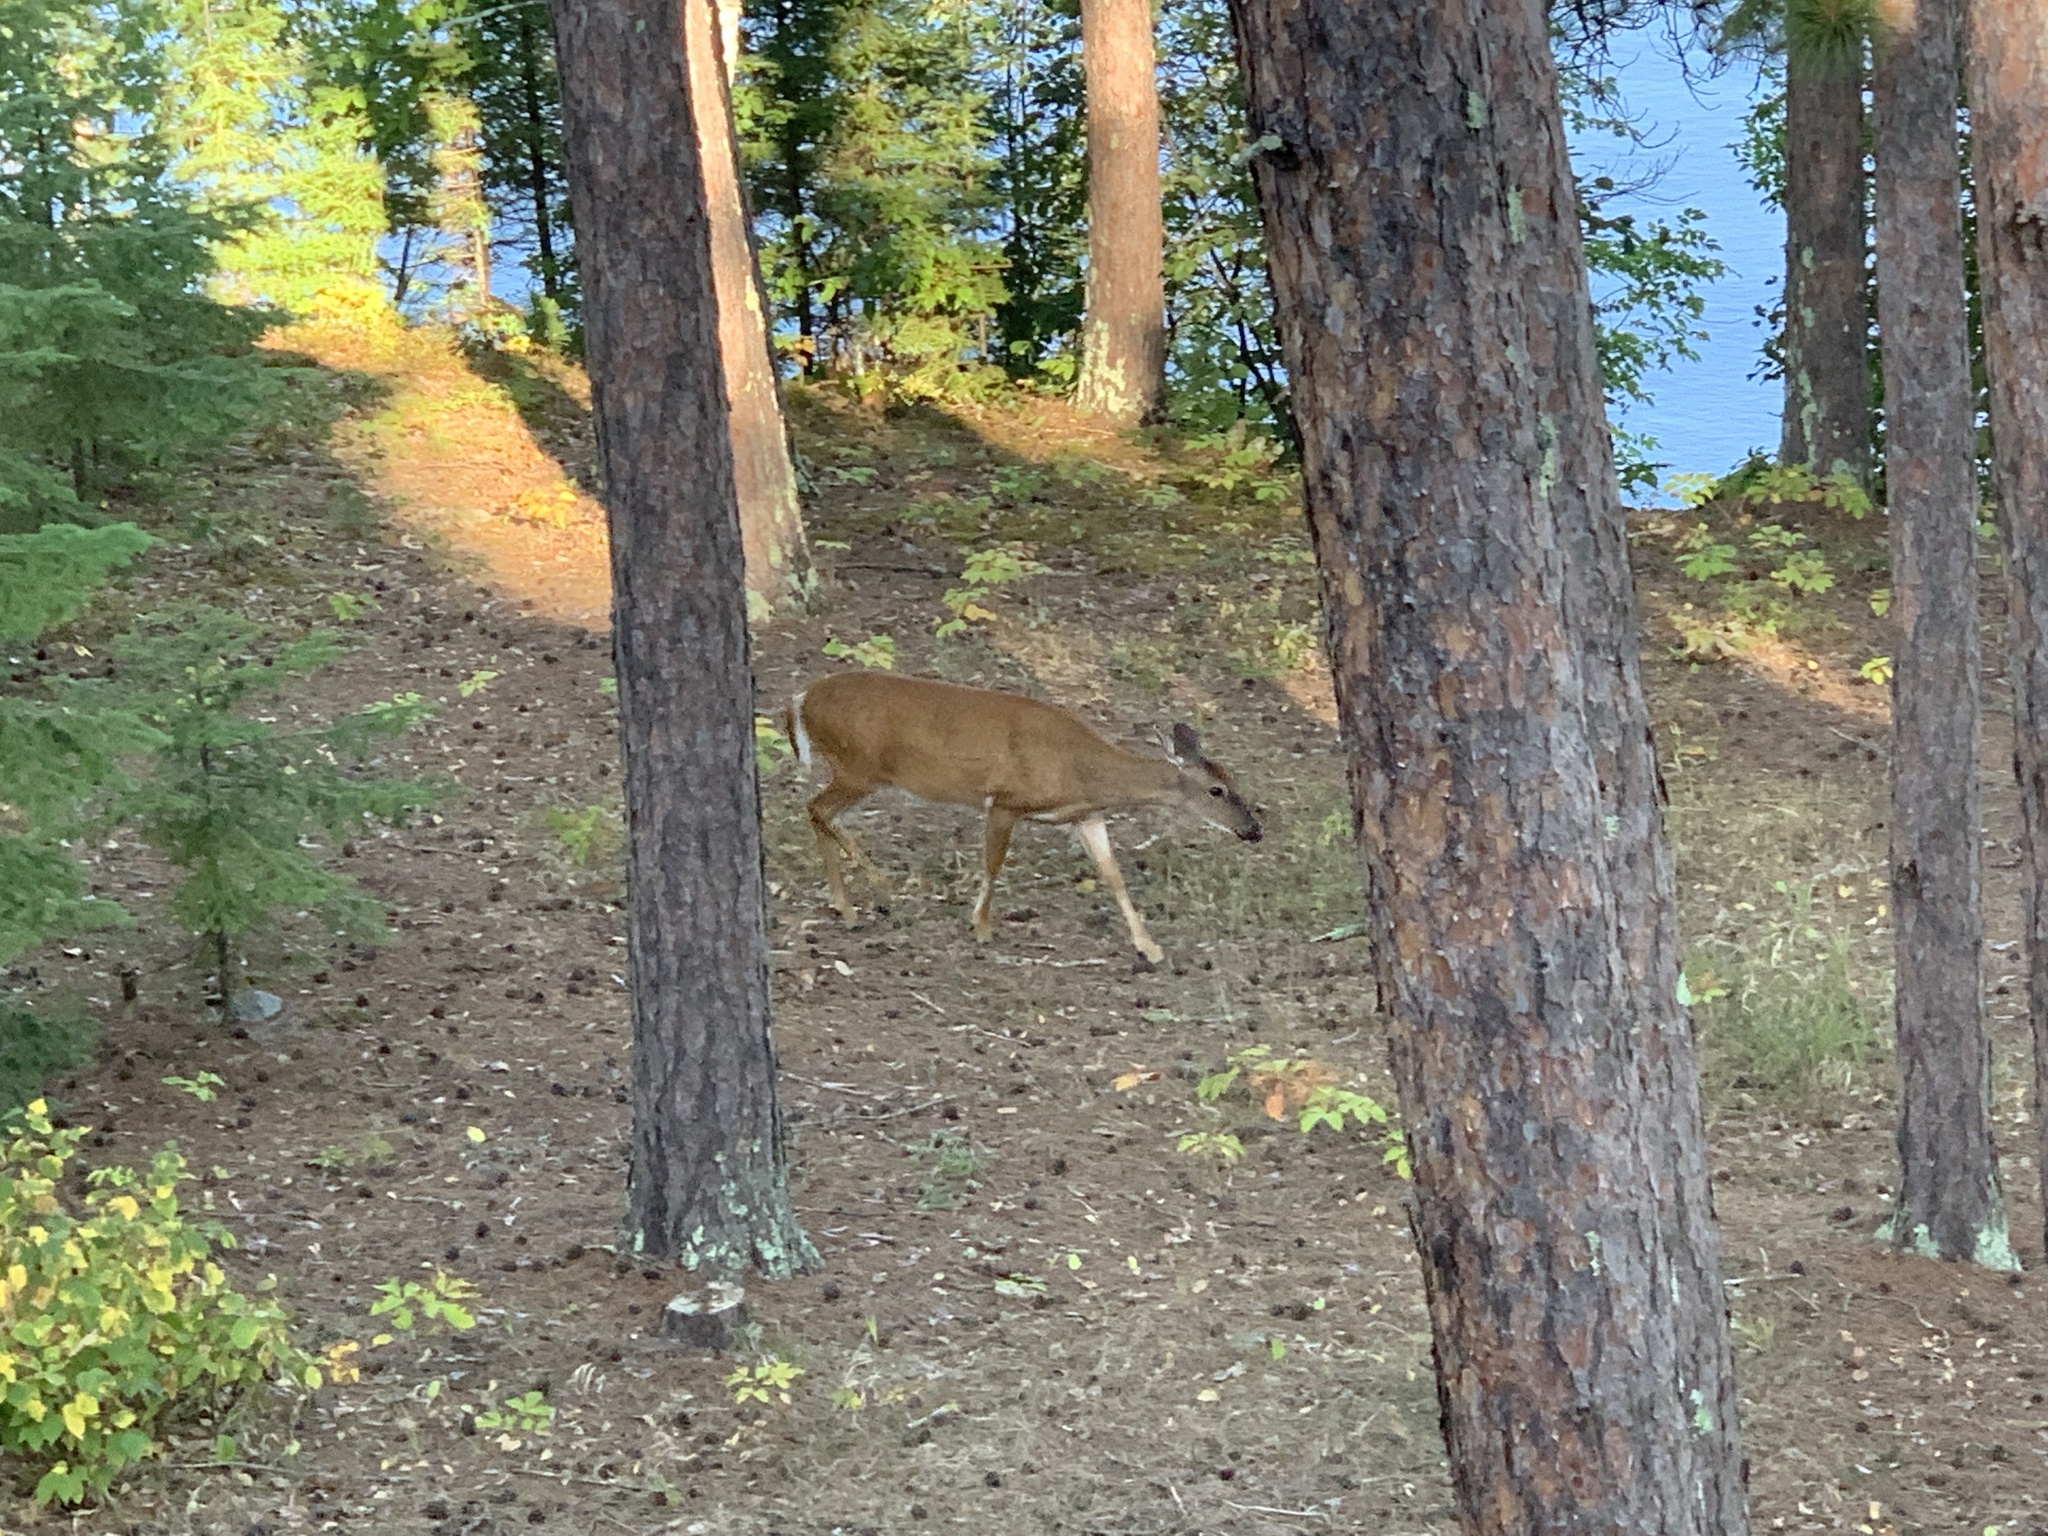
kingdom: Animalia
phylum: Chordata
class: Mammalia
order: Artiodactyla
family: Cervidae
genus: Odocoileus
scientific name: Odocoileus virginianus
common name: White-tailed deer
